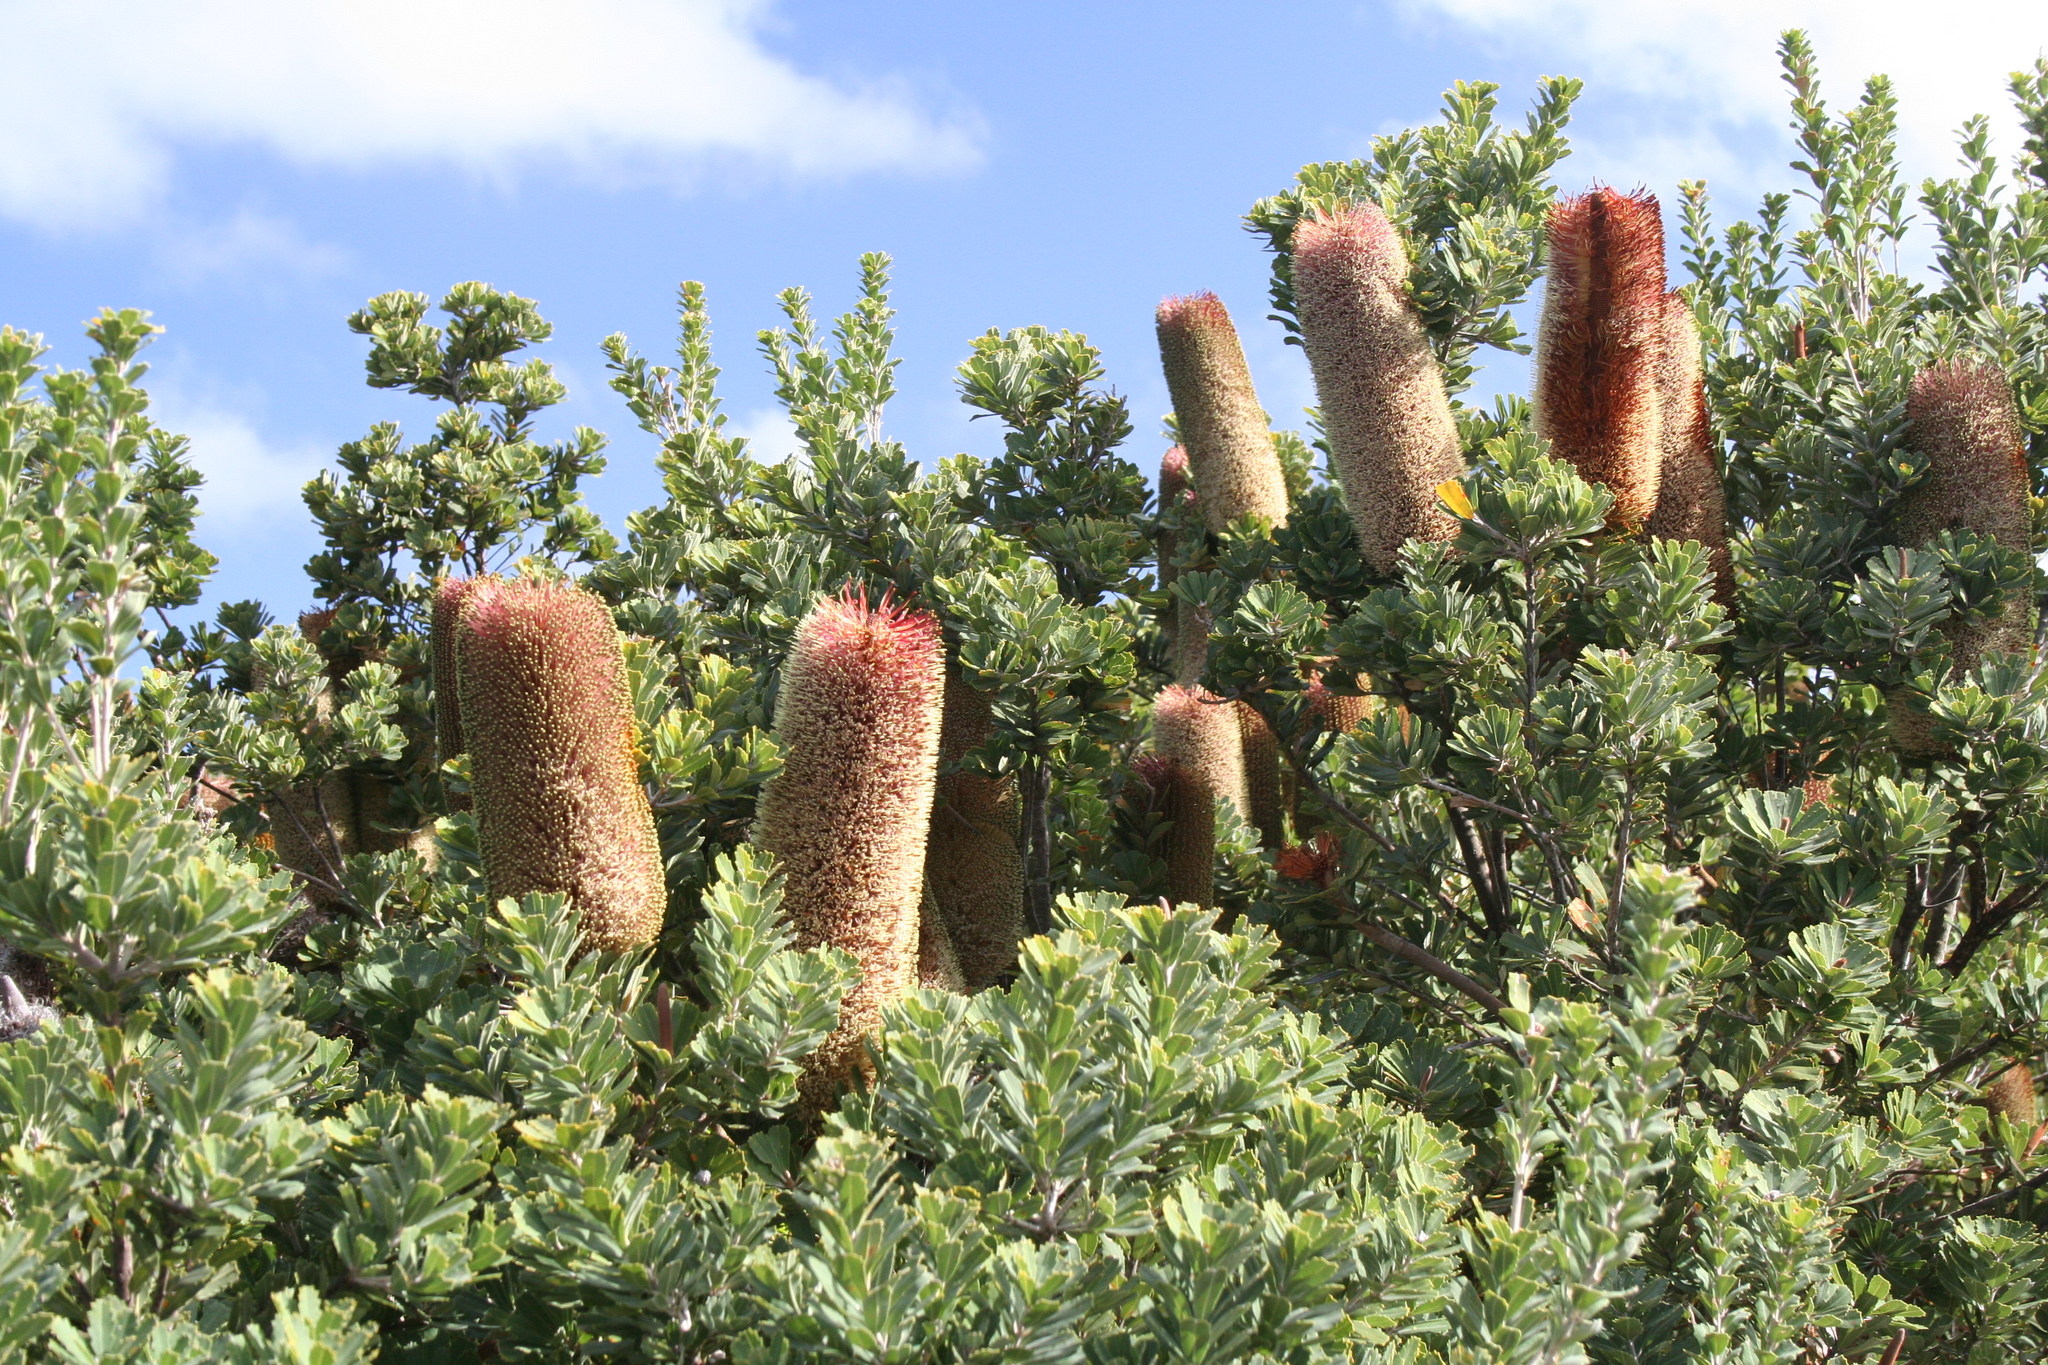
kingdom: Plantae
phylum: Tracheophyta
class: Magnoliopsida
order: Proteales
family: Proteaceae
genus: Banksia
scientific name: Banksia praemorsa
